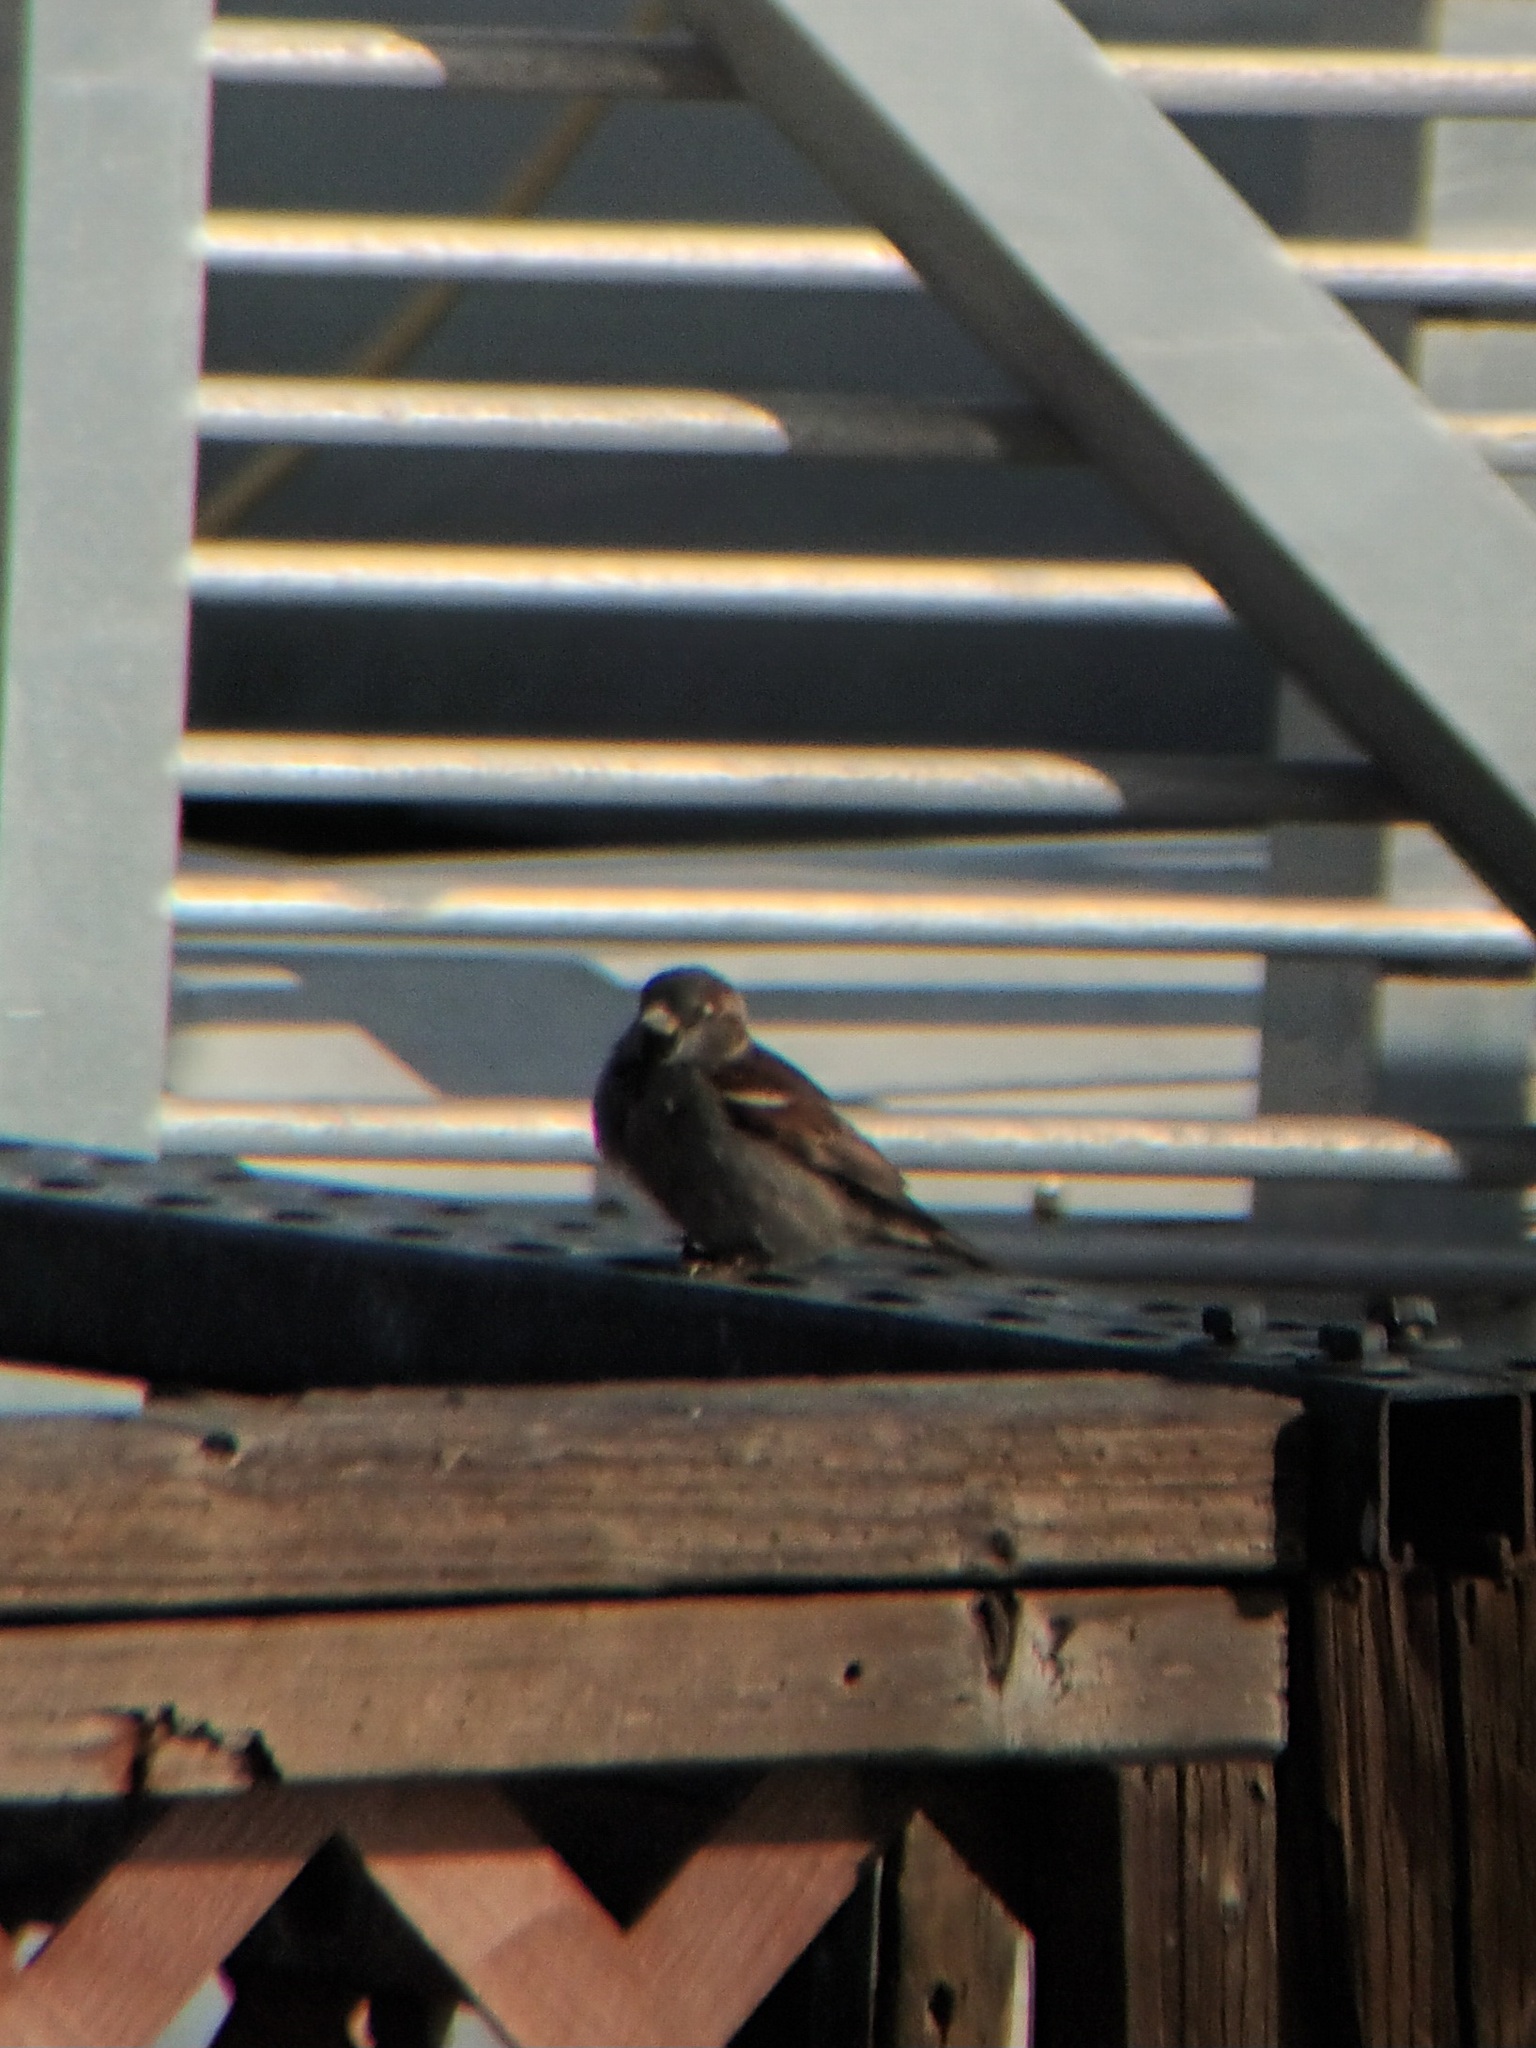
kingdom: Animalia
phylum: Chordata
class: Aves
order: Passeriformes
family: Passeridae
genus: Passer
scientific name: Passer domesticus
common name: House sparrow
